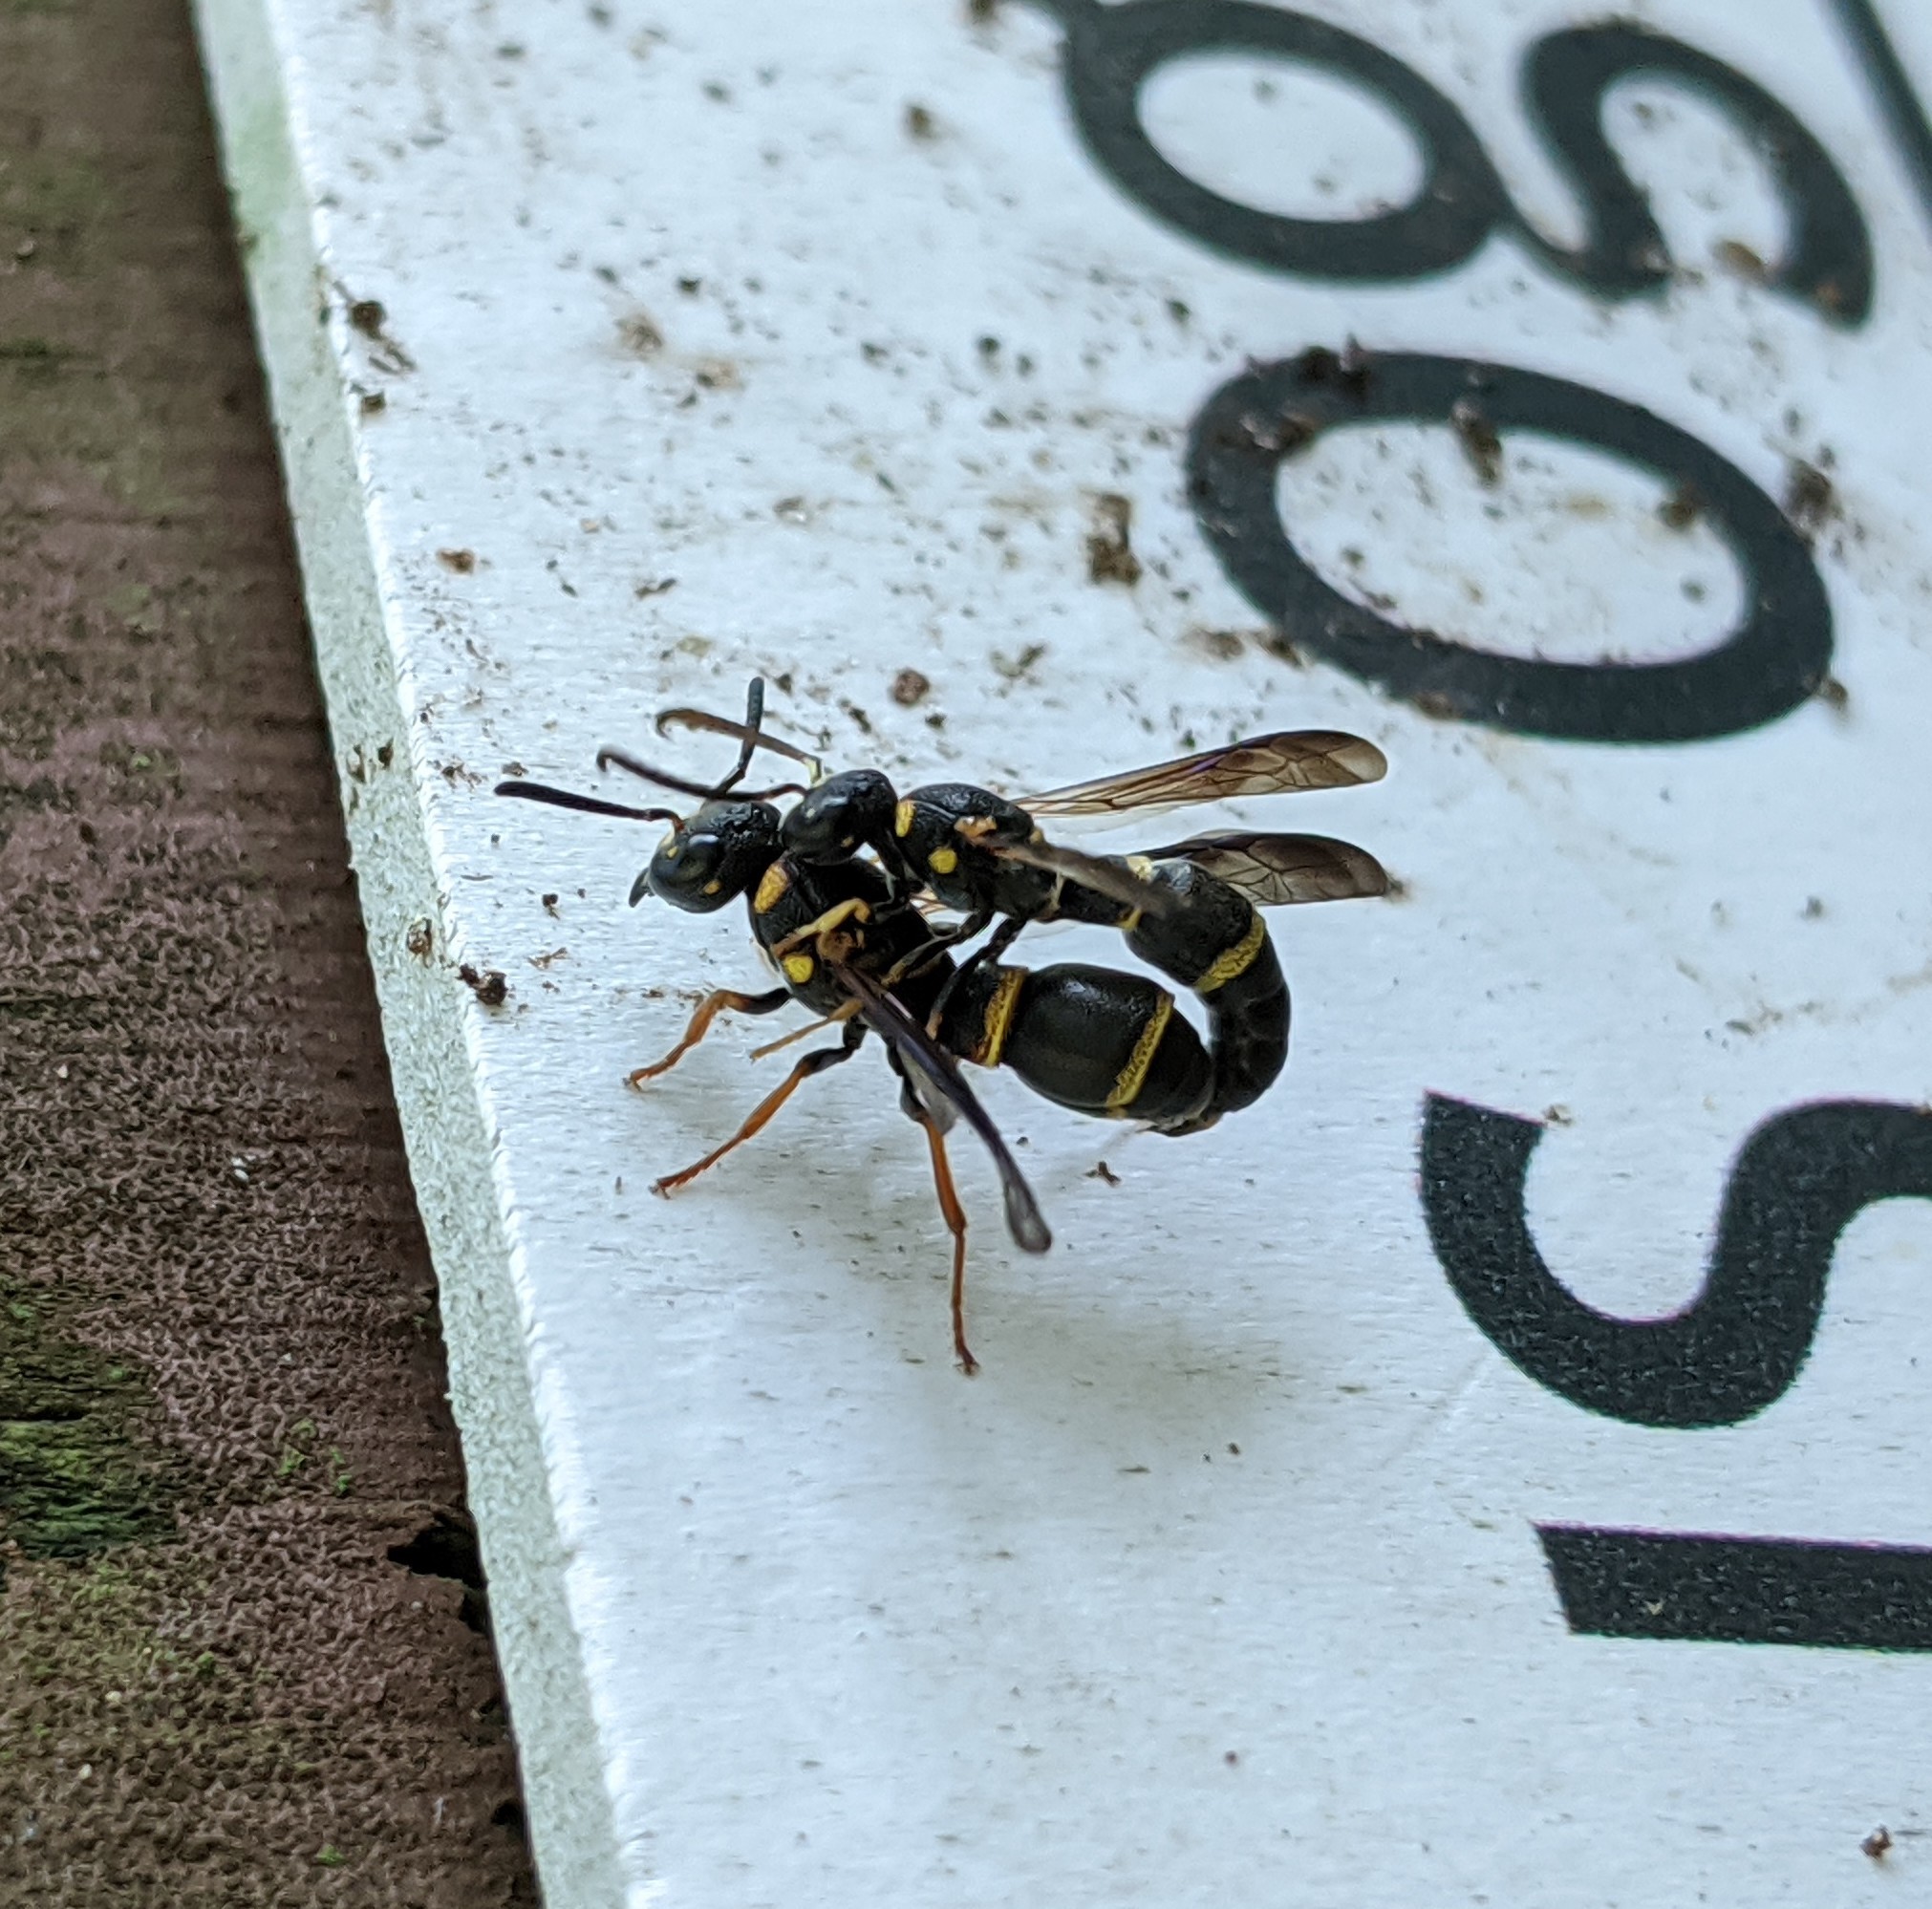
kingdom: Animalia
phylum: Arthropoda
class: Insecta
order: Hymenoptera
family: Eumenidae
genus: Parancistrocerus
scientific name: Parancistrocerus perennis
